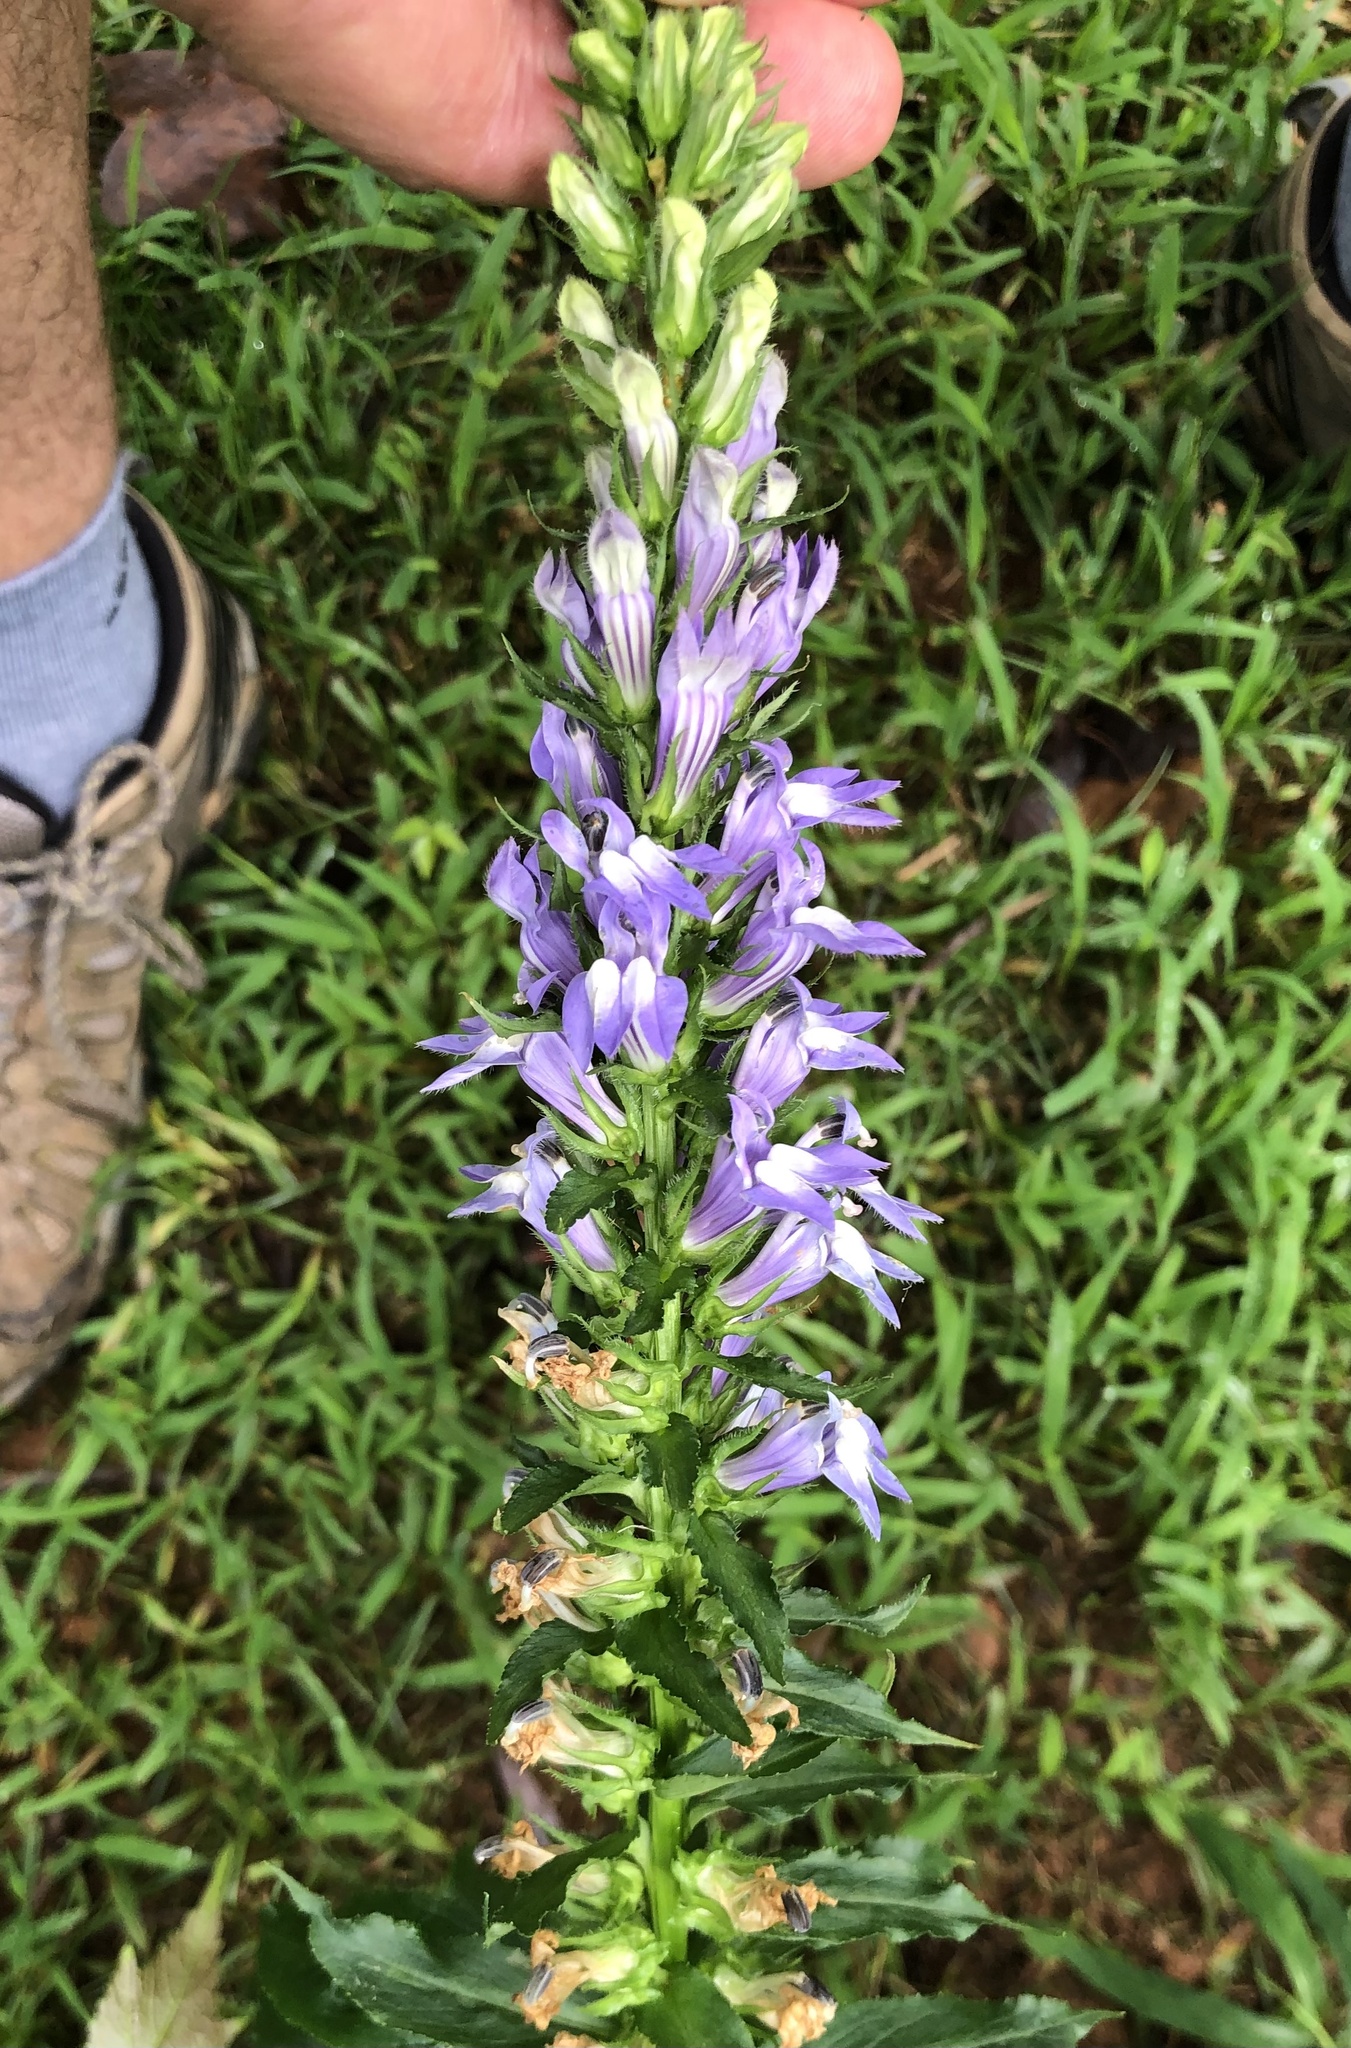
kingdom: Plantae
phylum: Tracheophyta
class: Magnoliopsida
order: Asterales
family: Campanulaceae
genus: Lobelia
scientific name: Lobelia siphilitica
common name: Great lobelia
